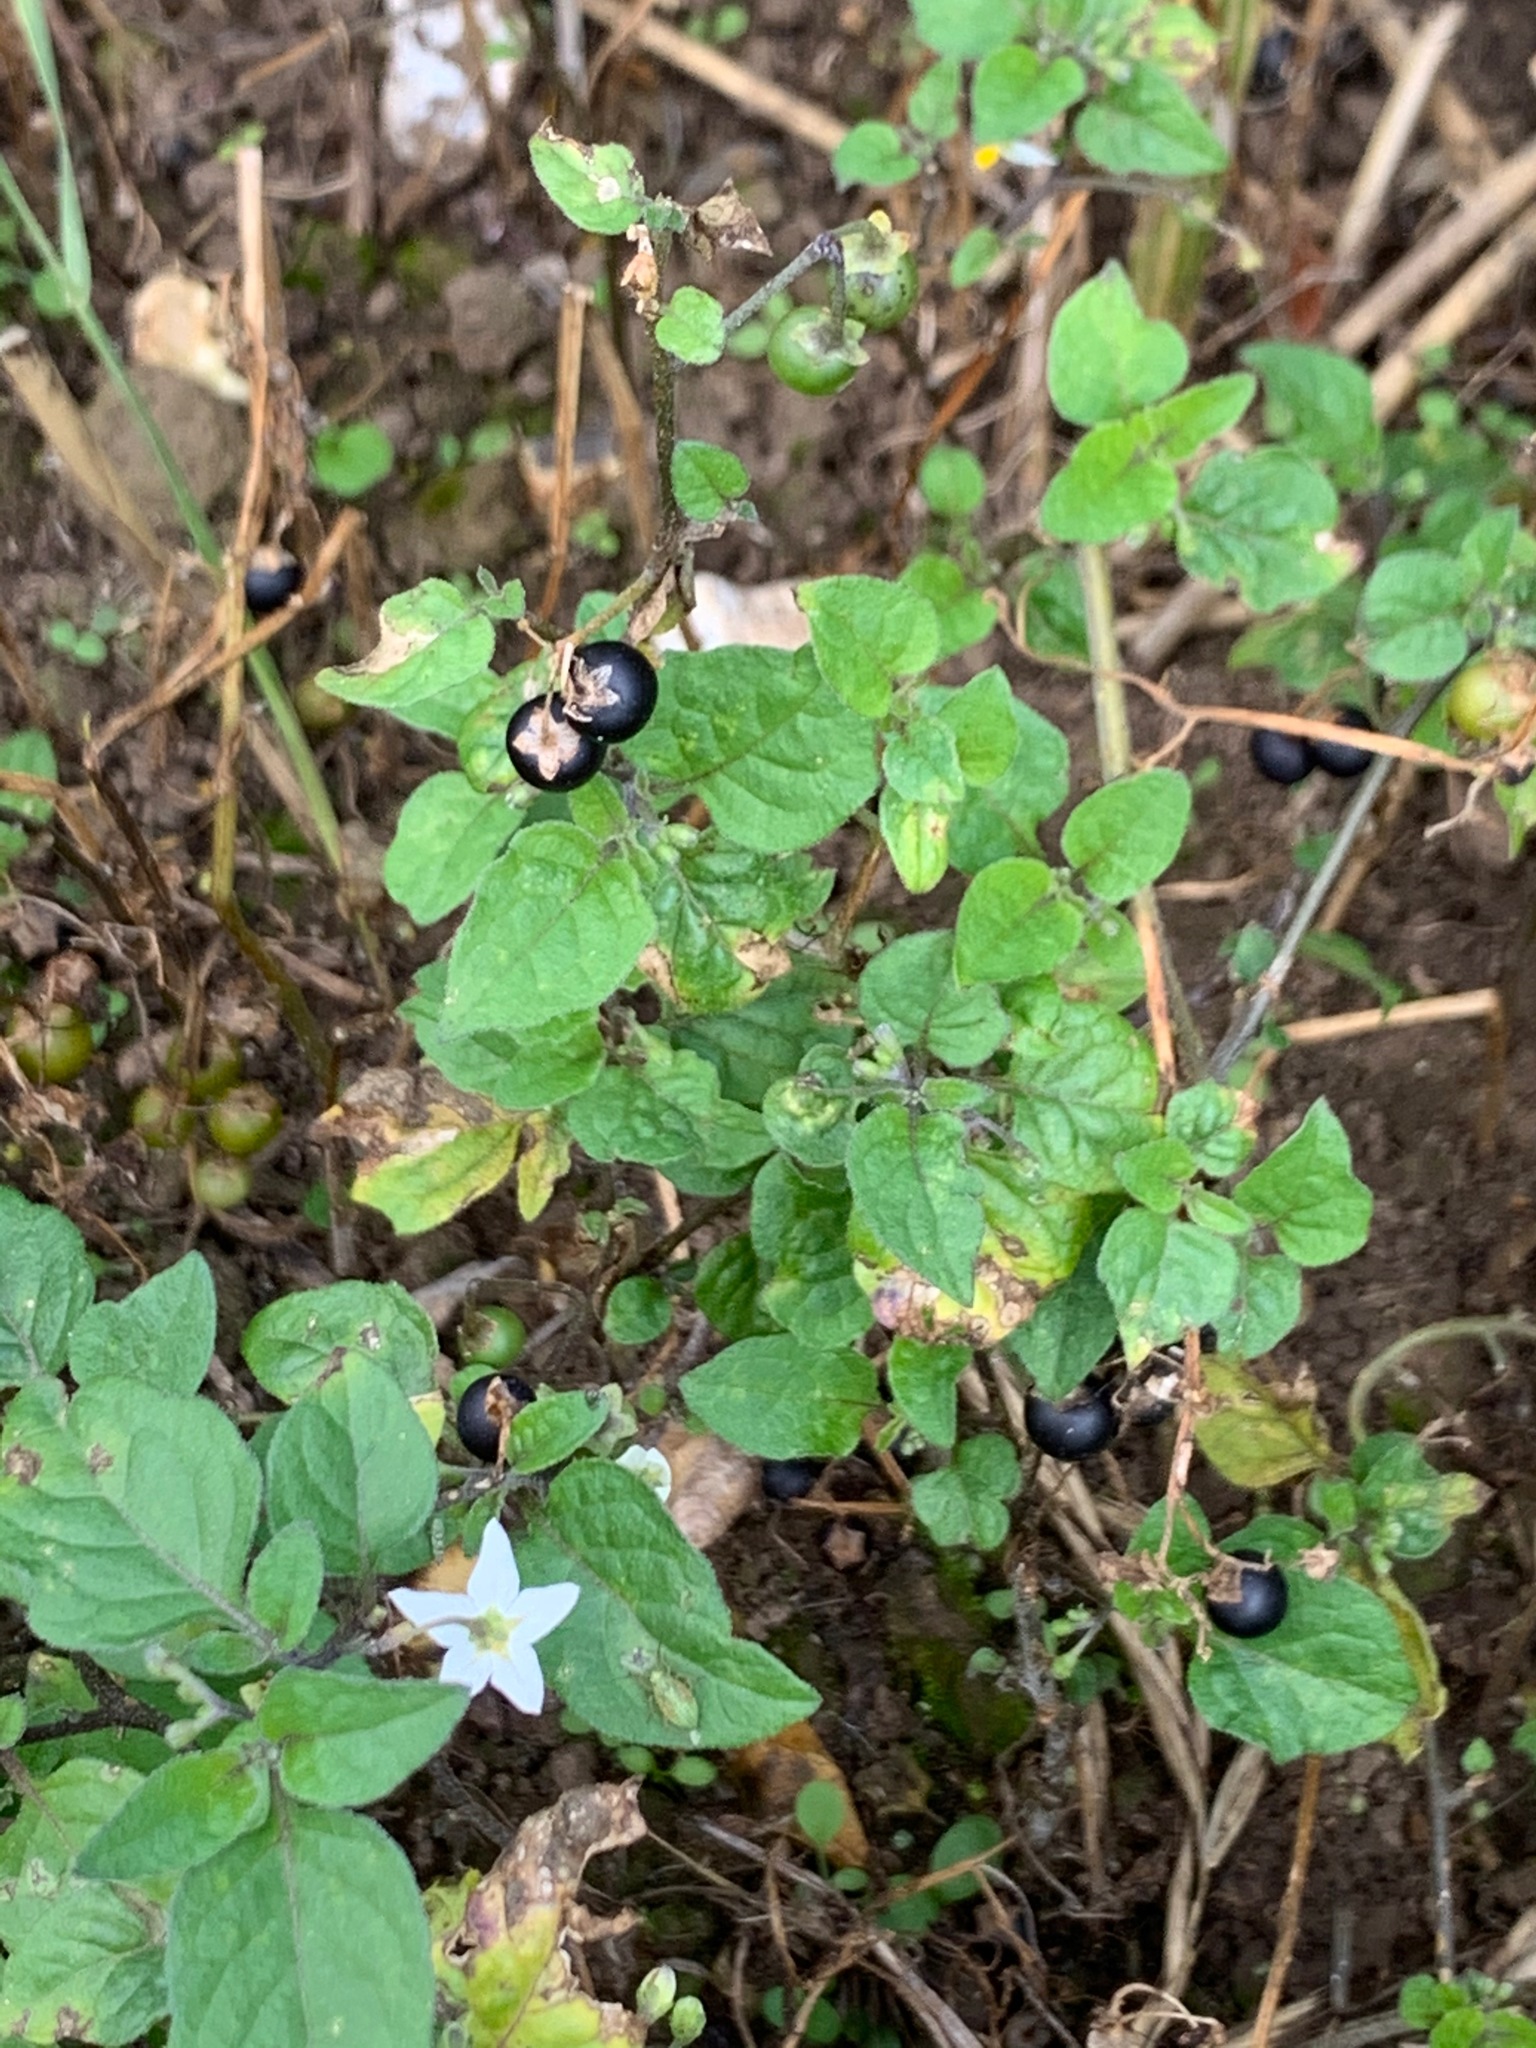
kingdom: Plantae
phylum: Tracheophyta
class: Magnoliopsida
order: Solanales
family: Solanaceae
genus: Solanum
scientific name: Solanum nigrum
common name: Black nightshade
